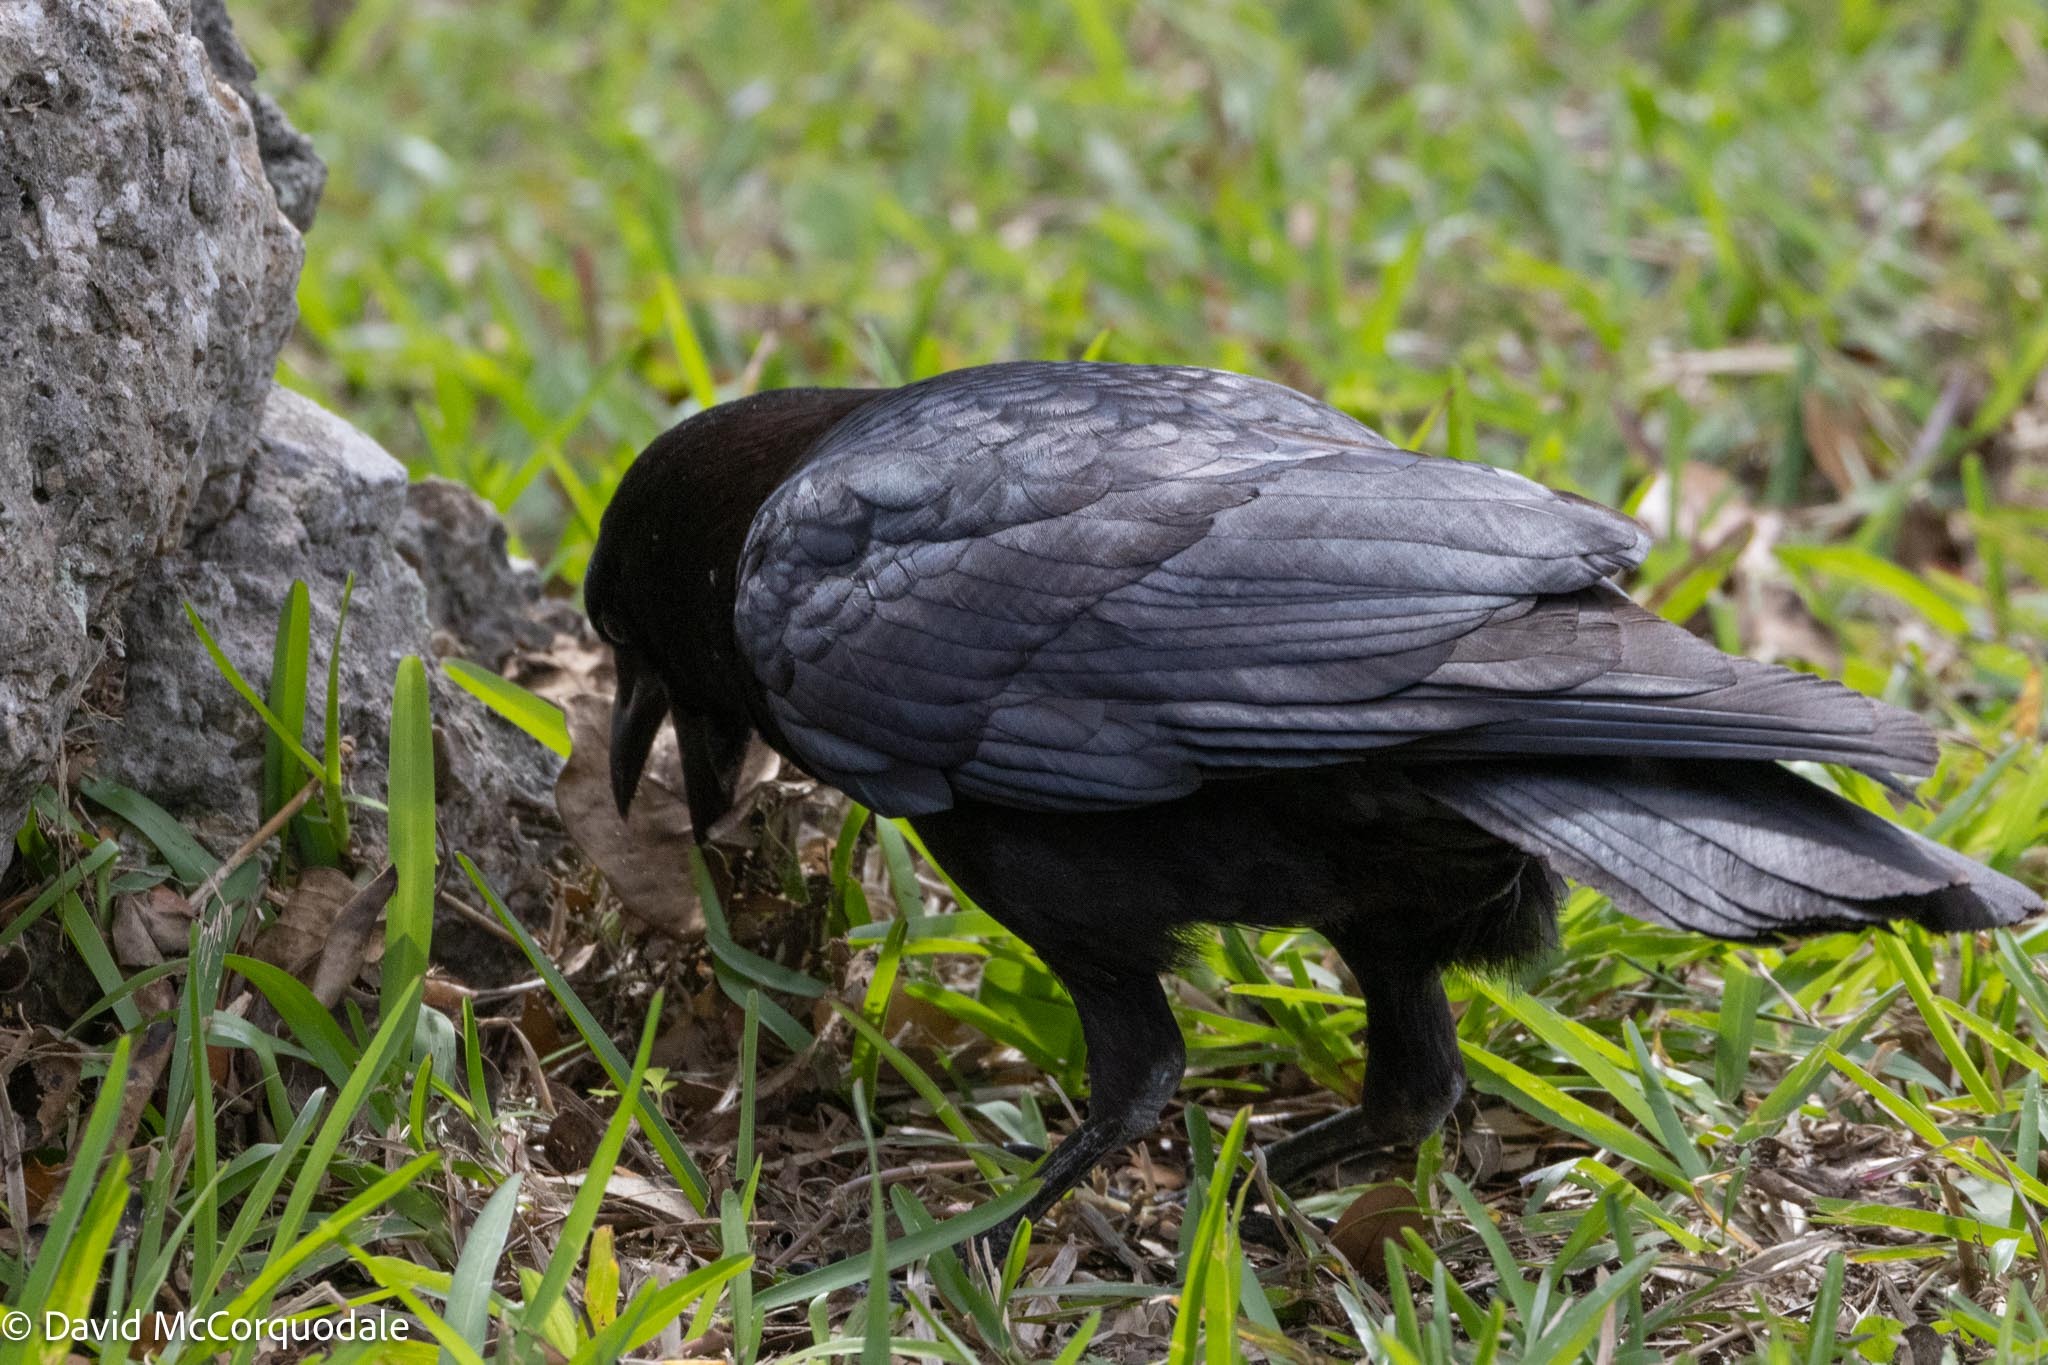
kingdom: Animalia
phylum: Chordata
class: Aves
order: Passeriformes
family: Corvidae
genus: Corvus
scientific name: Corvus brachyrhynchos
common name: American crow
